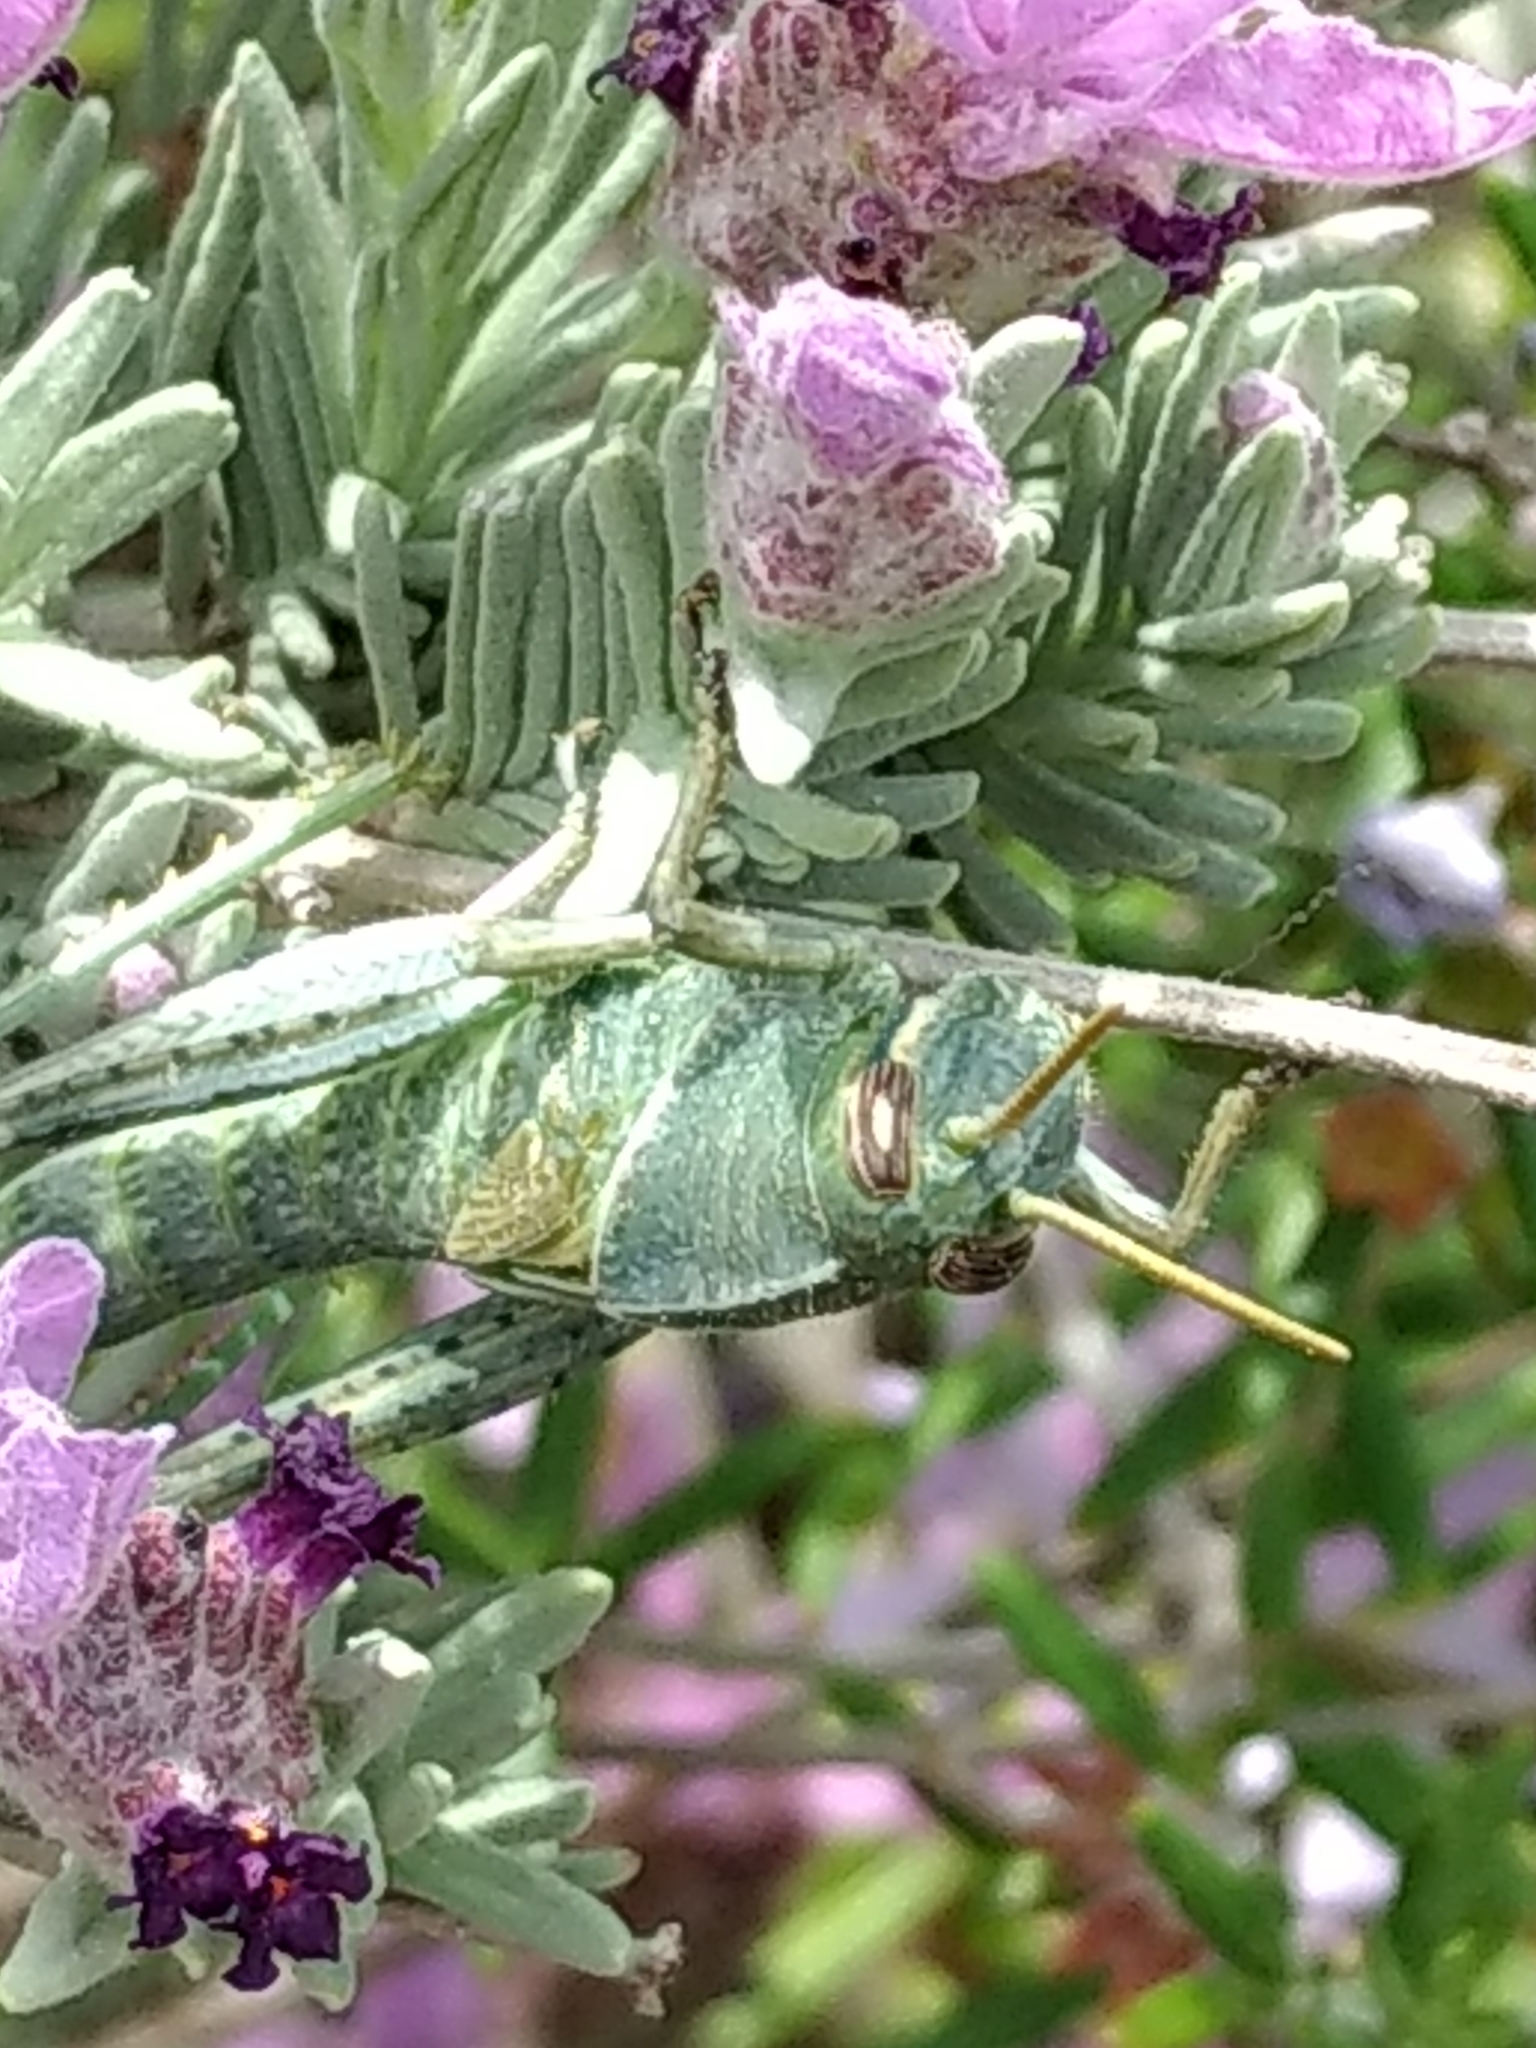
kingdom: Animalia
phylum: Arthropoda
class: Insecta
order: Orthoptera
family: Acrididae
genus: Schistocerca
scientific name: Schistocerca
